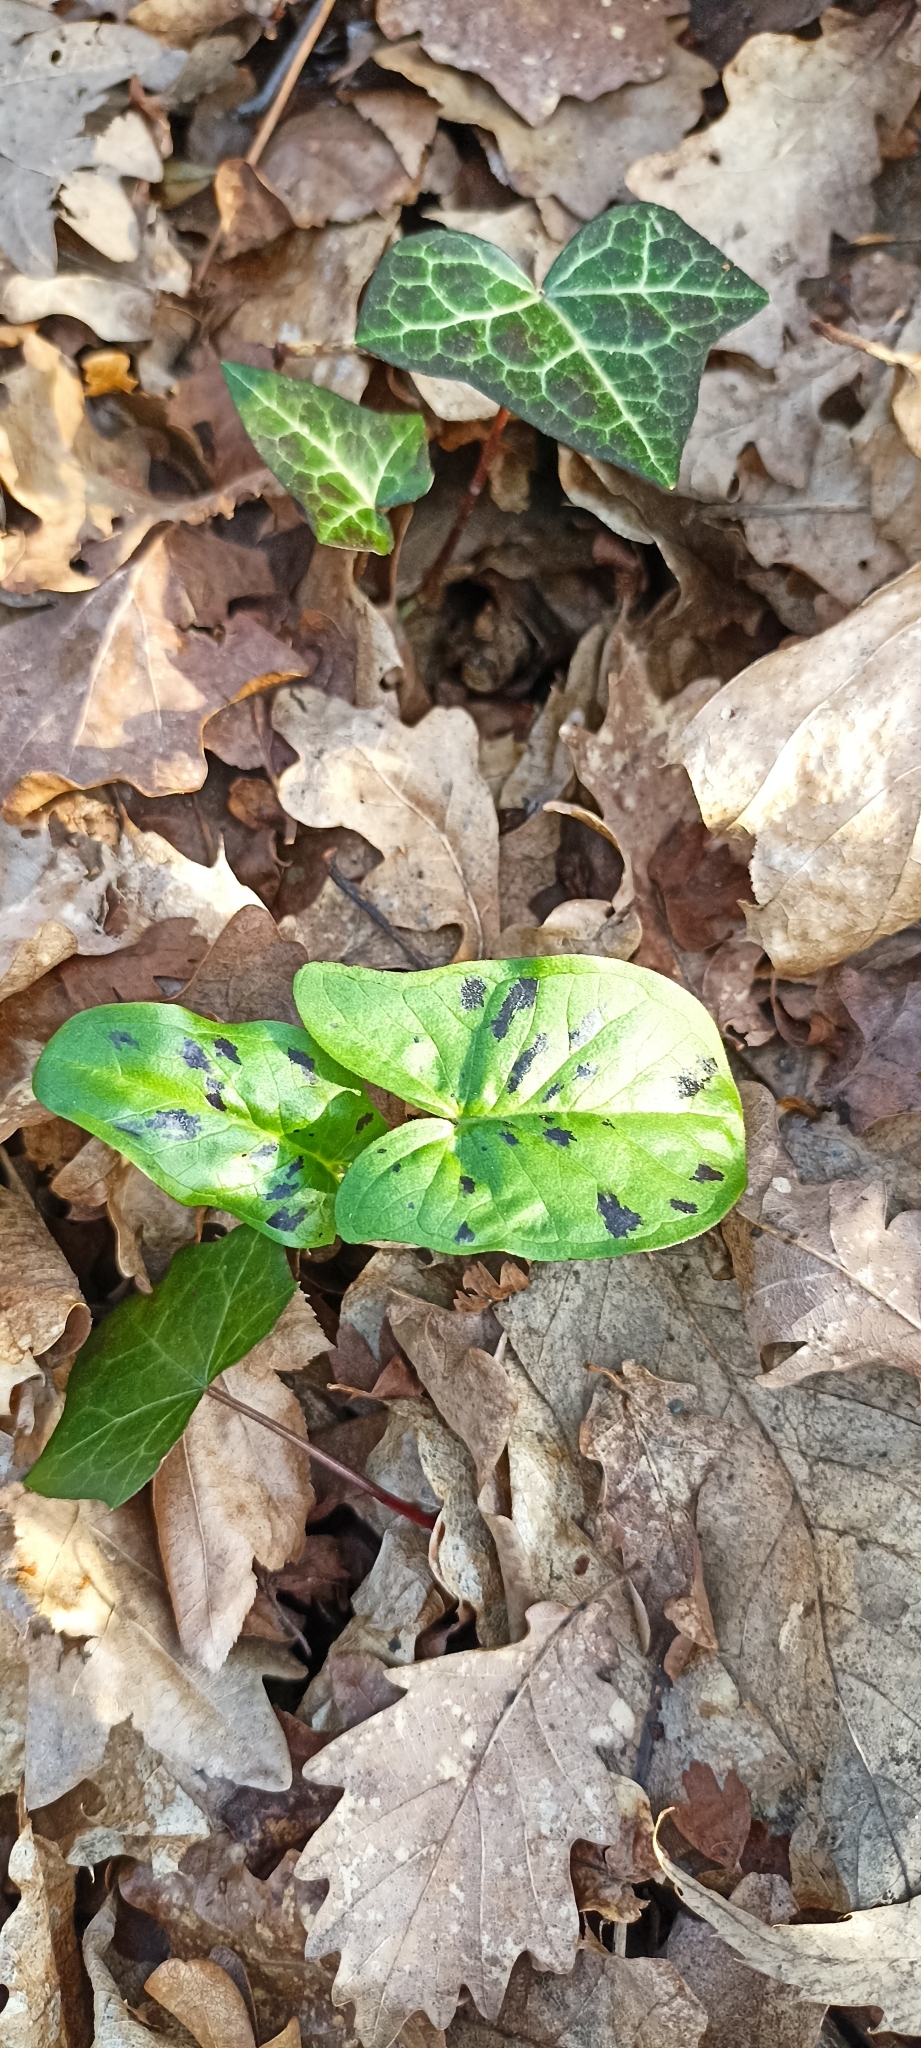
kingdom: Plantae
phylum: Tracheophyta
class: Liliopsida
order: Alismatales
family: Araceae
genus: Arum
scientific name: Arum maculatum
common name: Lords-and-ladies
